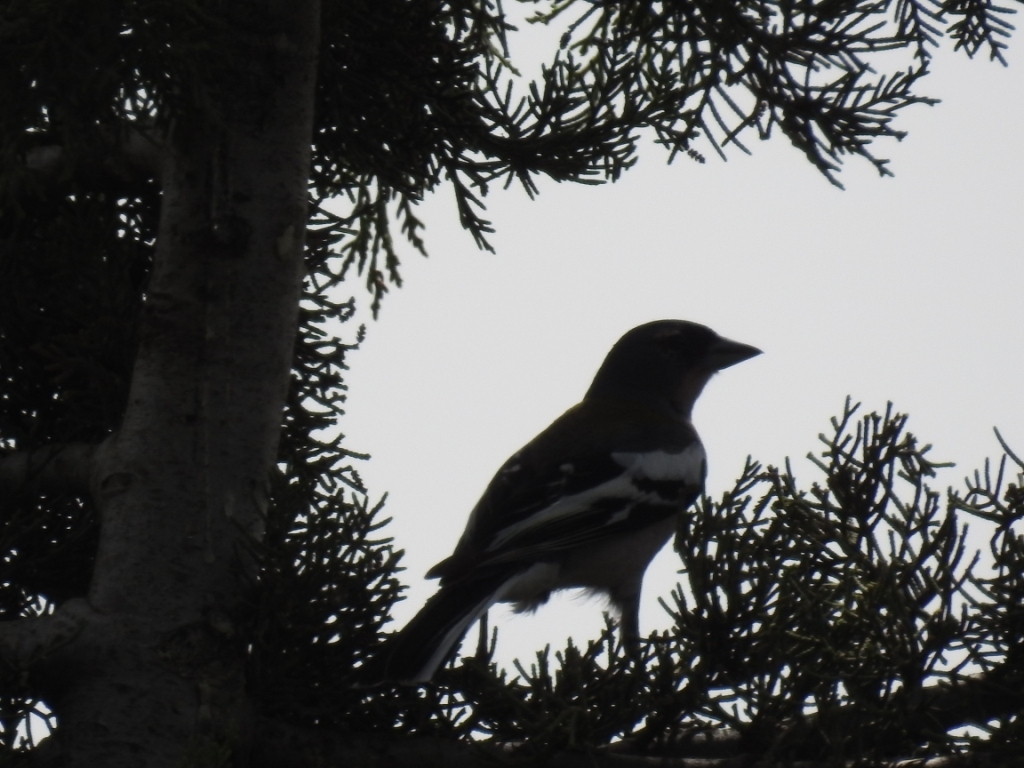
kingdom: Animalia
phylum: Chordata
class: Aves
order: Passeriformes
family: Fringillidae
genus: Fringilla
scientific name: Fringilla spodiogenys
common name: African chaffinch
